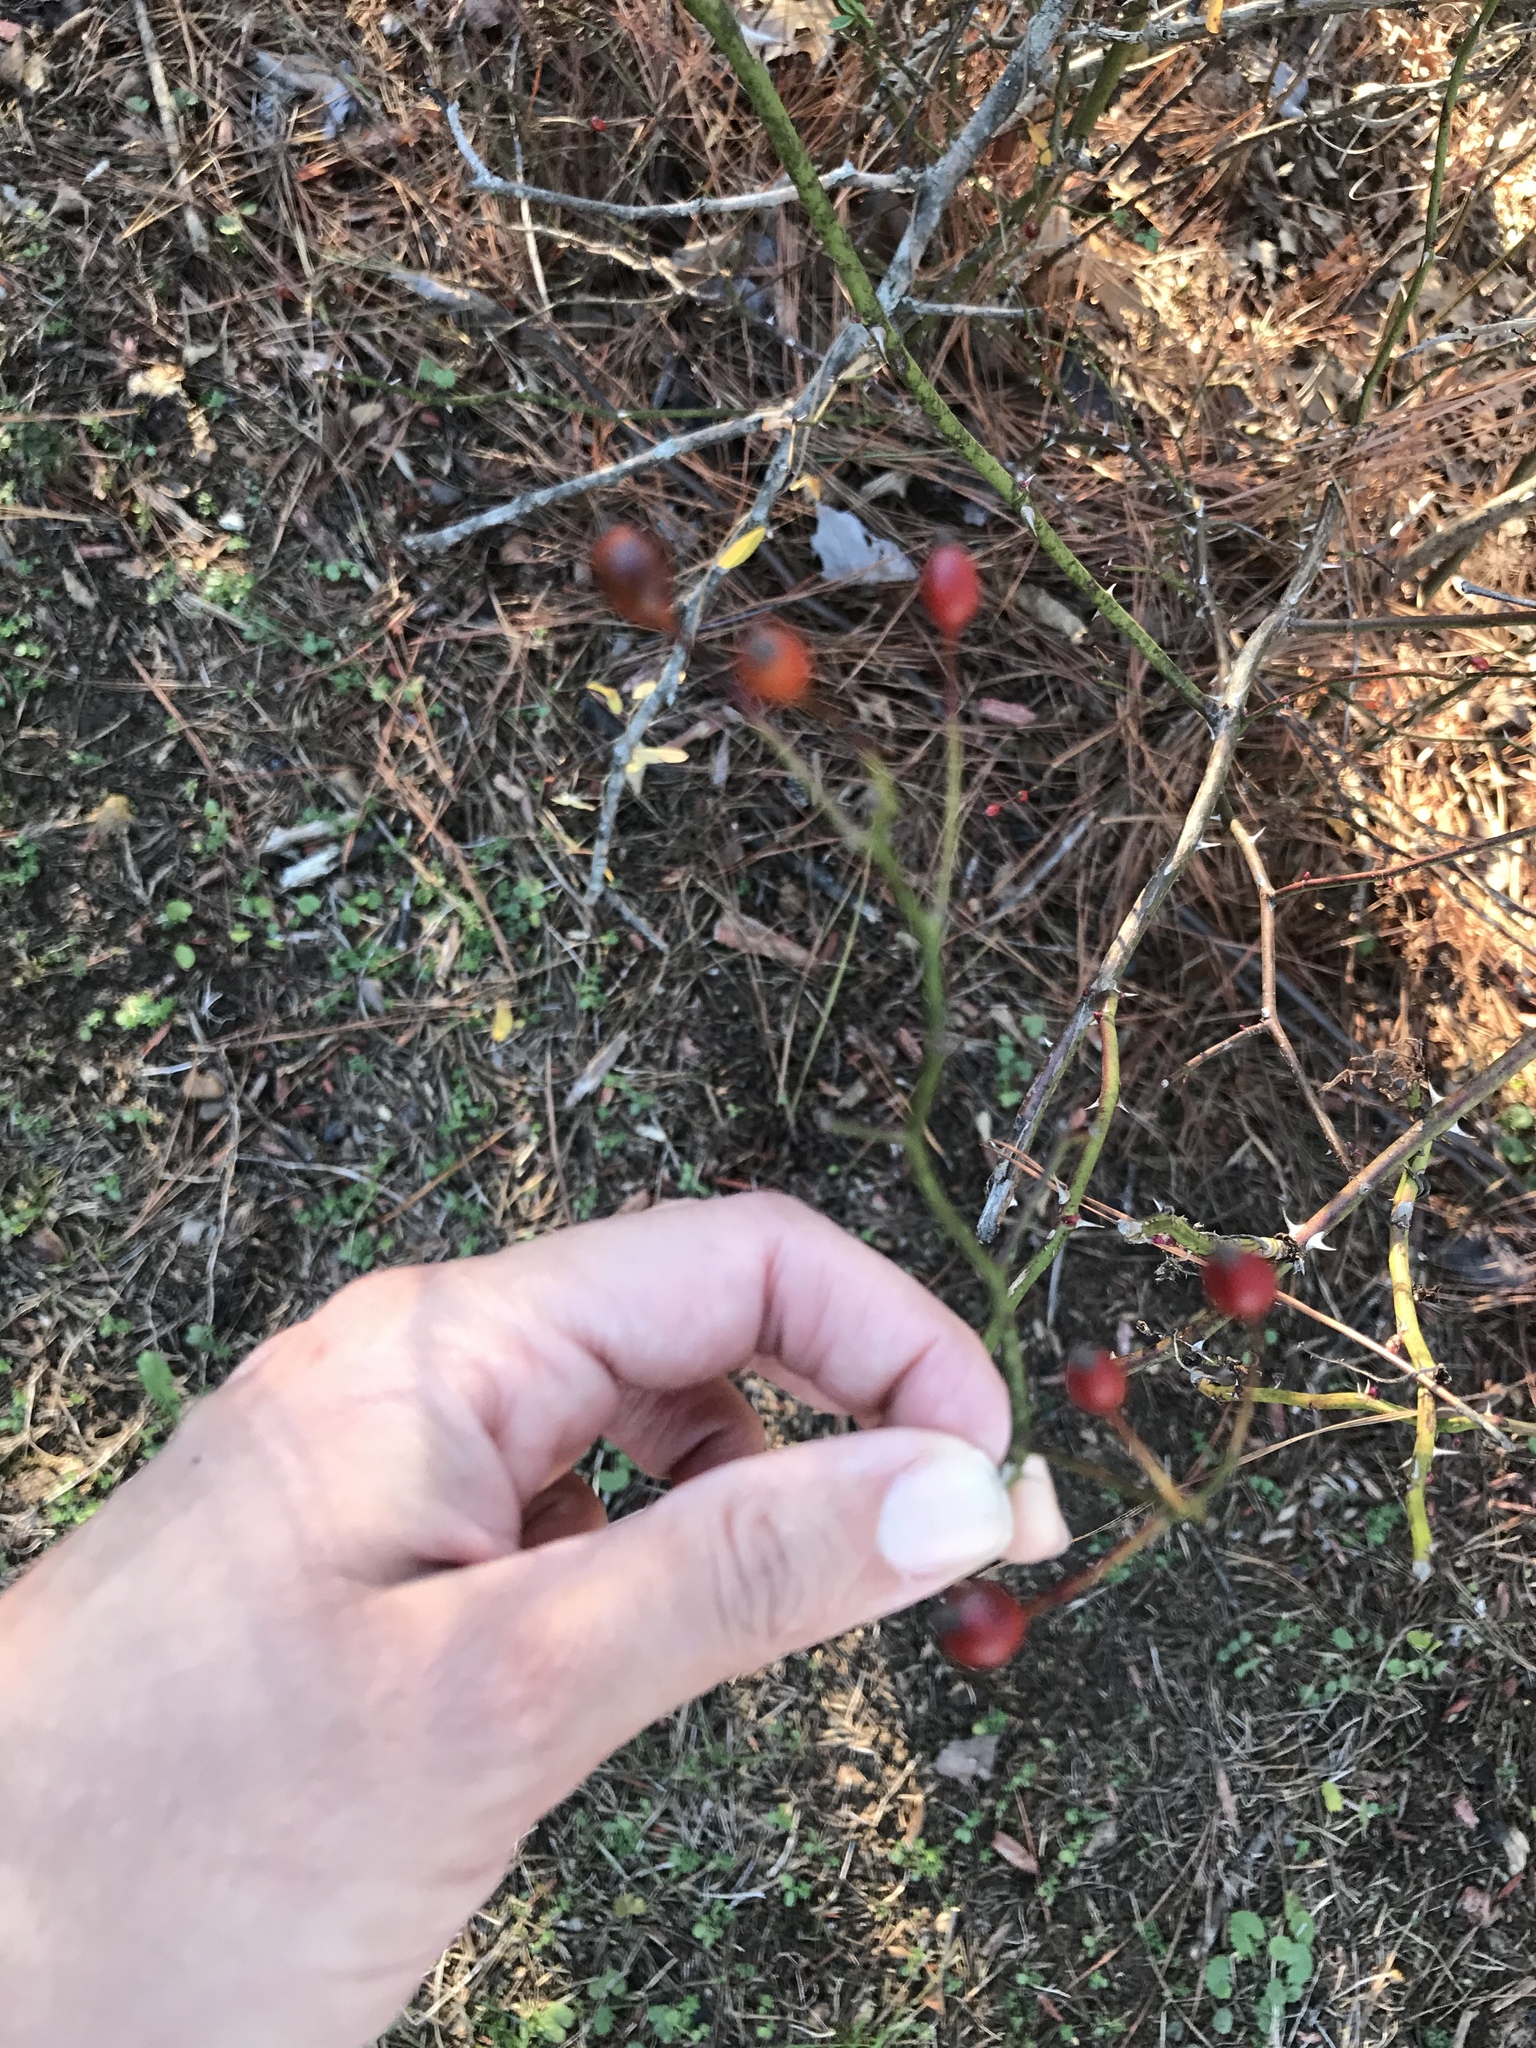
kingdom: Plantae
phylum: Tracheophyta
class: Magnoliopsida
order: Rosales
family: Rosaceae
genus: Rosa
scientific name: Rosa multiflora
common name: Multiflora rose
